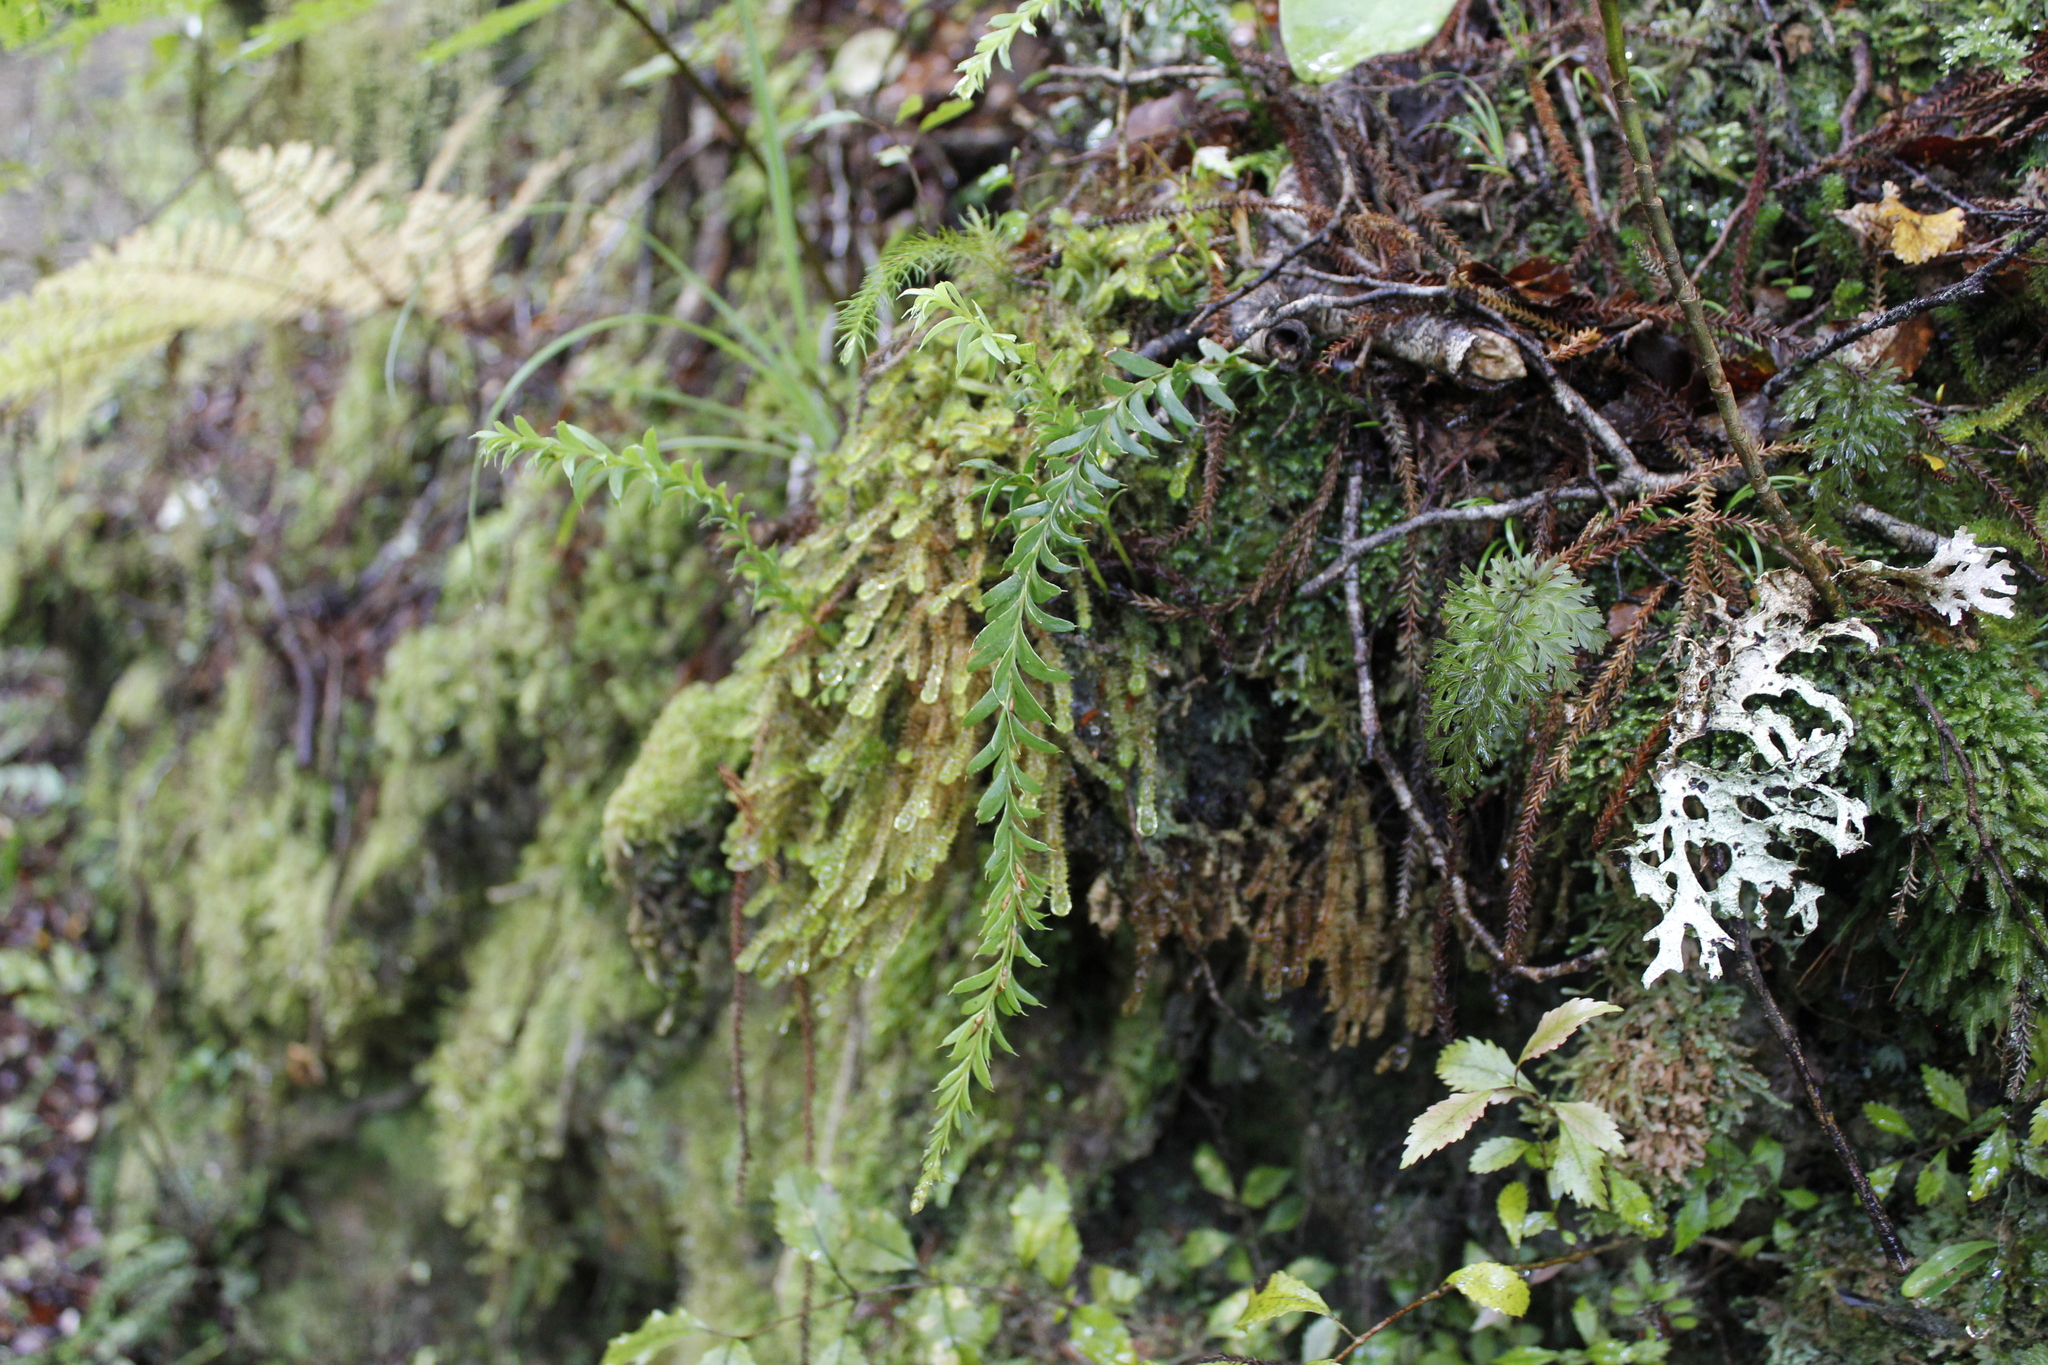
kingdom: Plantae
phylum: Tracheophyta
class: Polypodiopsida
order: Psilotales
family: Psilotaceae
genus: Tmesipteris
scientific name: Tmesipteris tannensis
